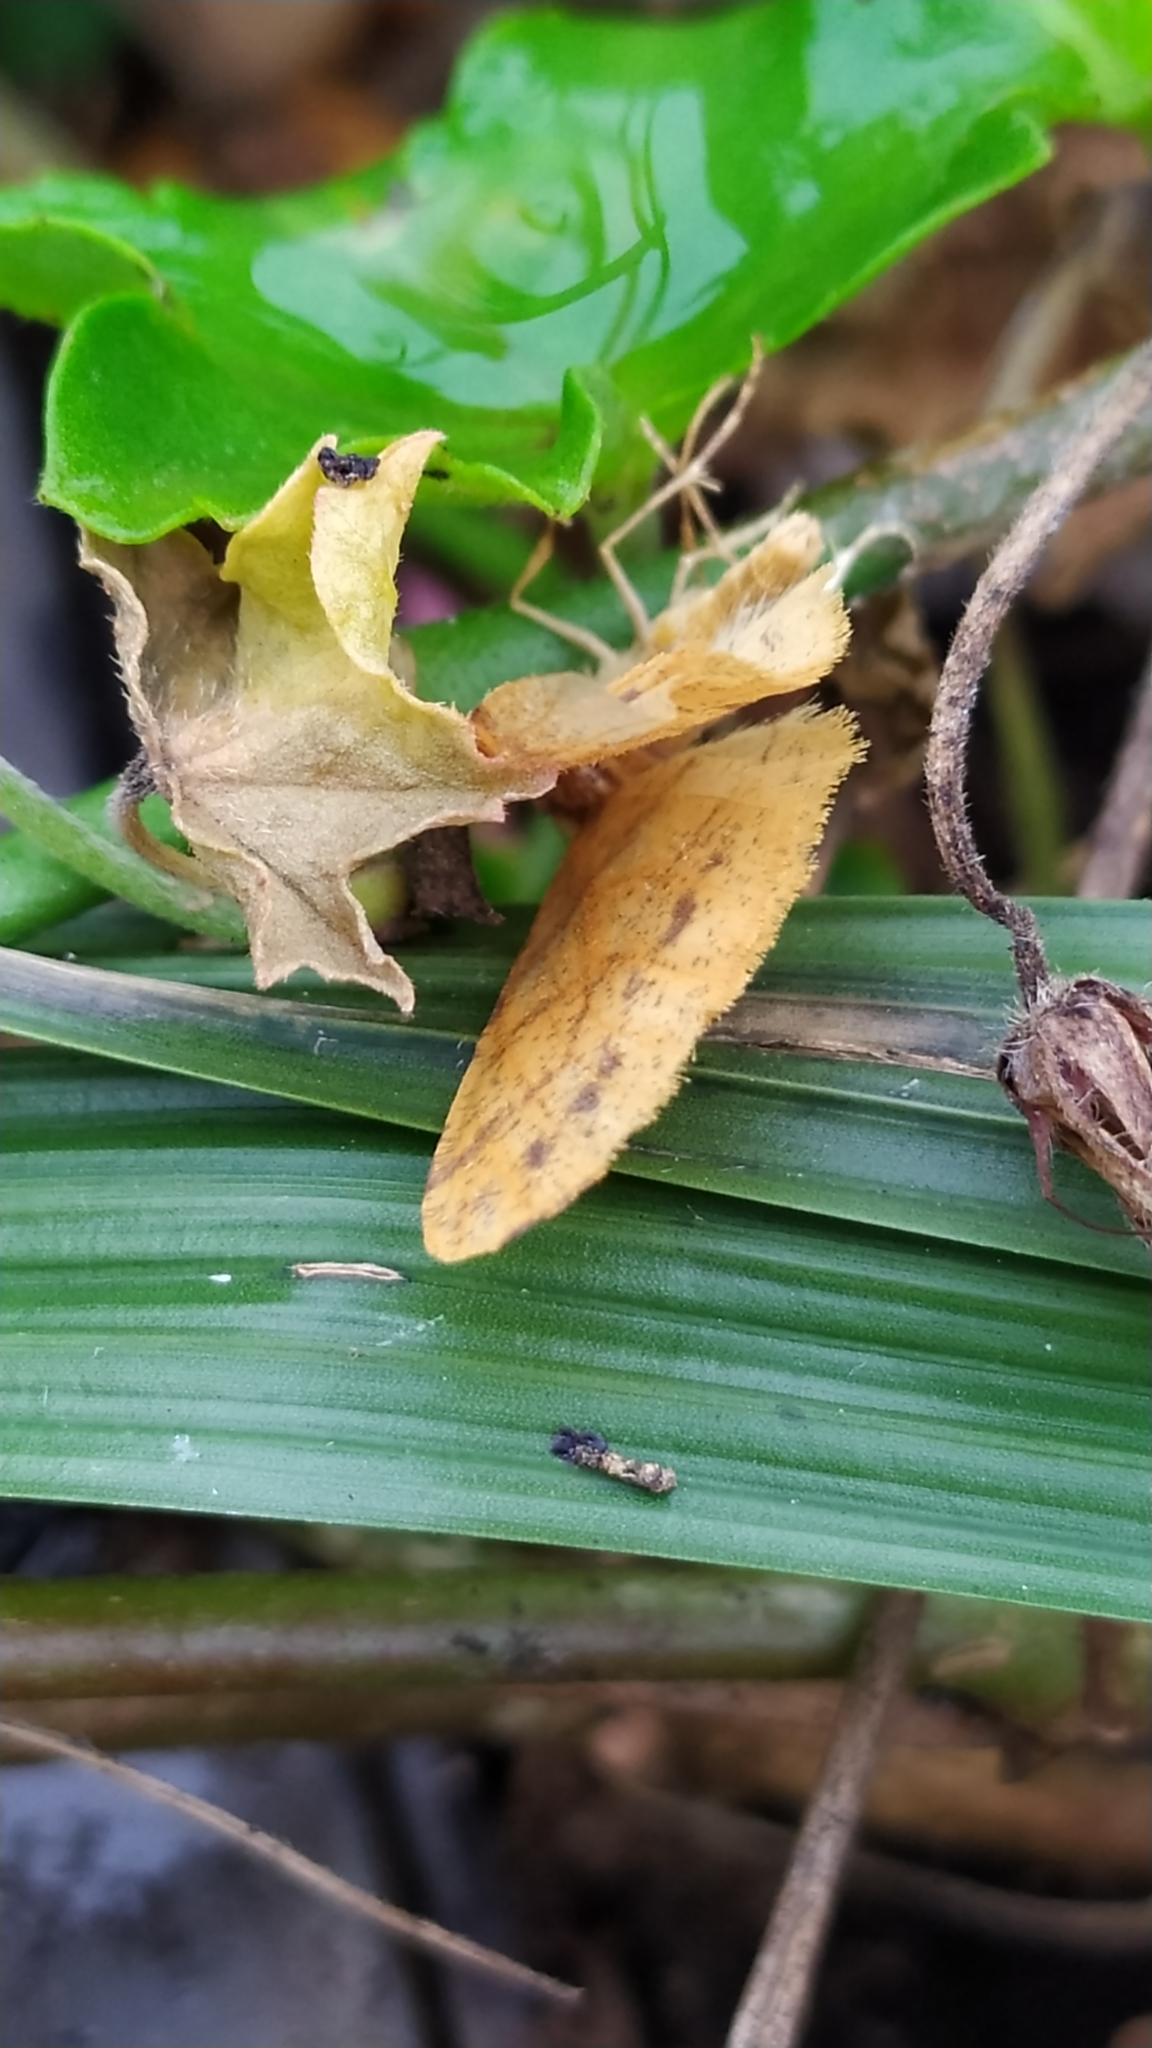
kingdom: Animalia
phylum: Arthropoda
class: Insecta
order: Lepidoptera
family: Geometridae
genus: Agriopis
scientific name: Agriopis aurantiaria
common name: Scarce umber
